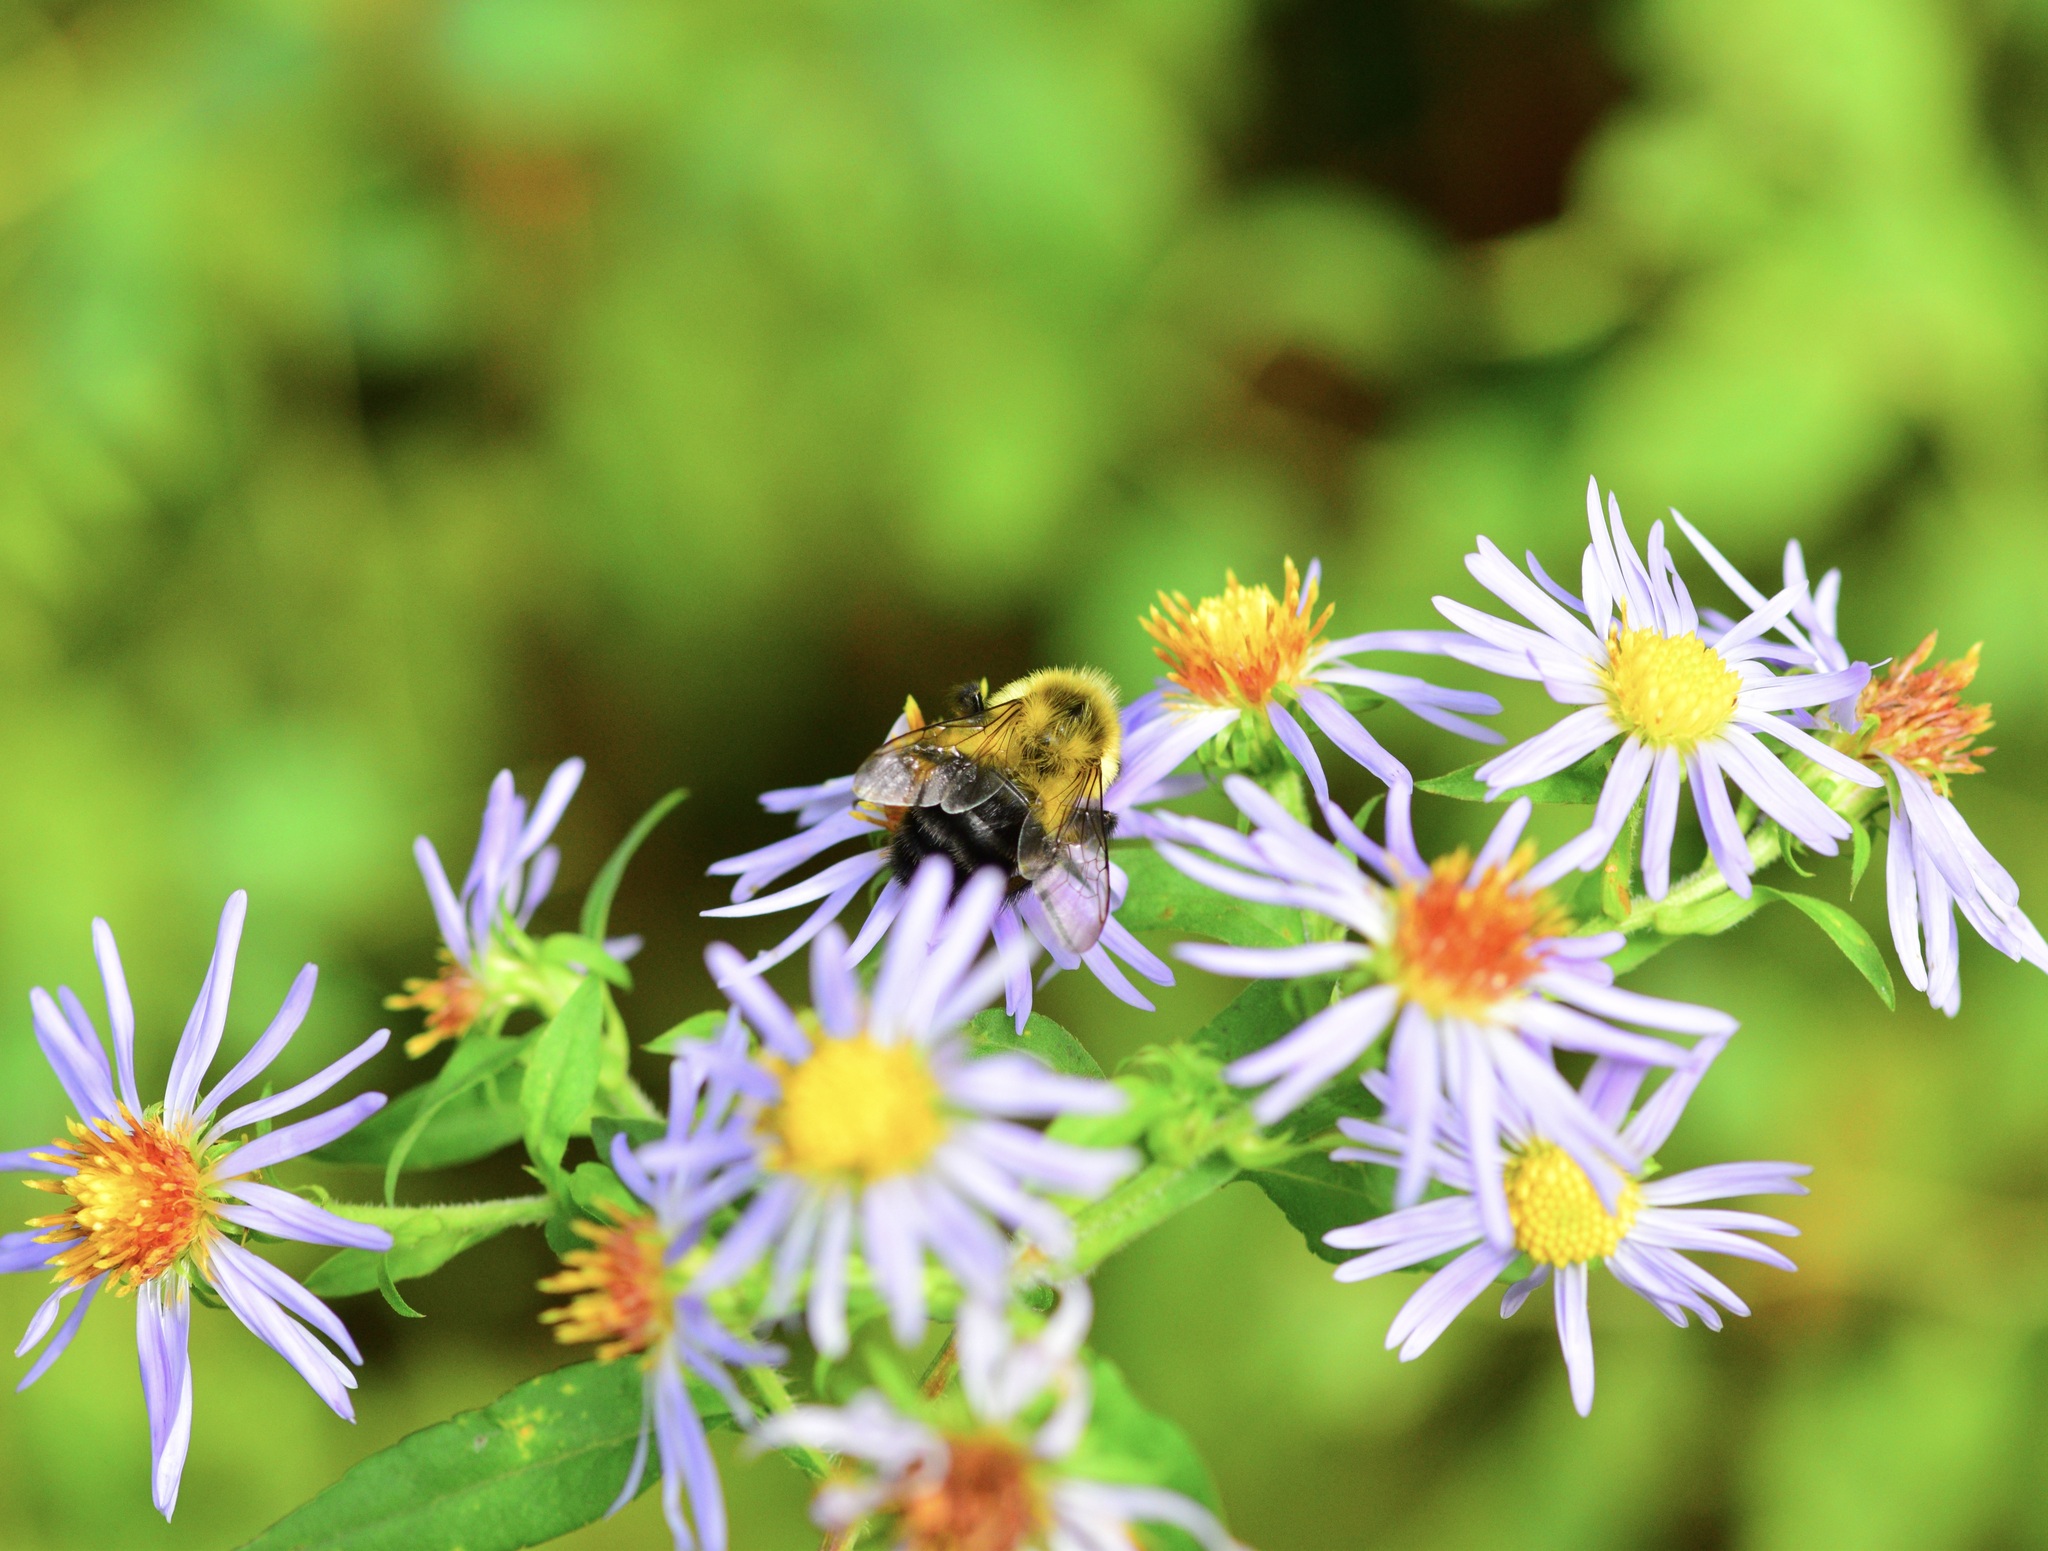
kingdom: Animalia
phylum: Arthropoda
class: Insecta
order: Hymenoptera
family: Apidae
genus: Bombus
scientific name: Bombus impatiens
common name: Common eastern bumble bee
